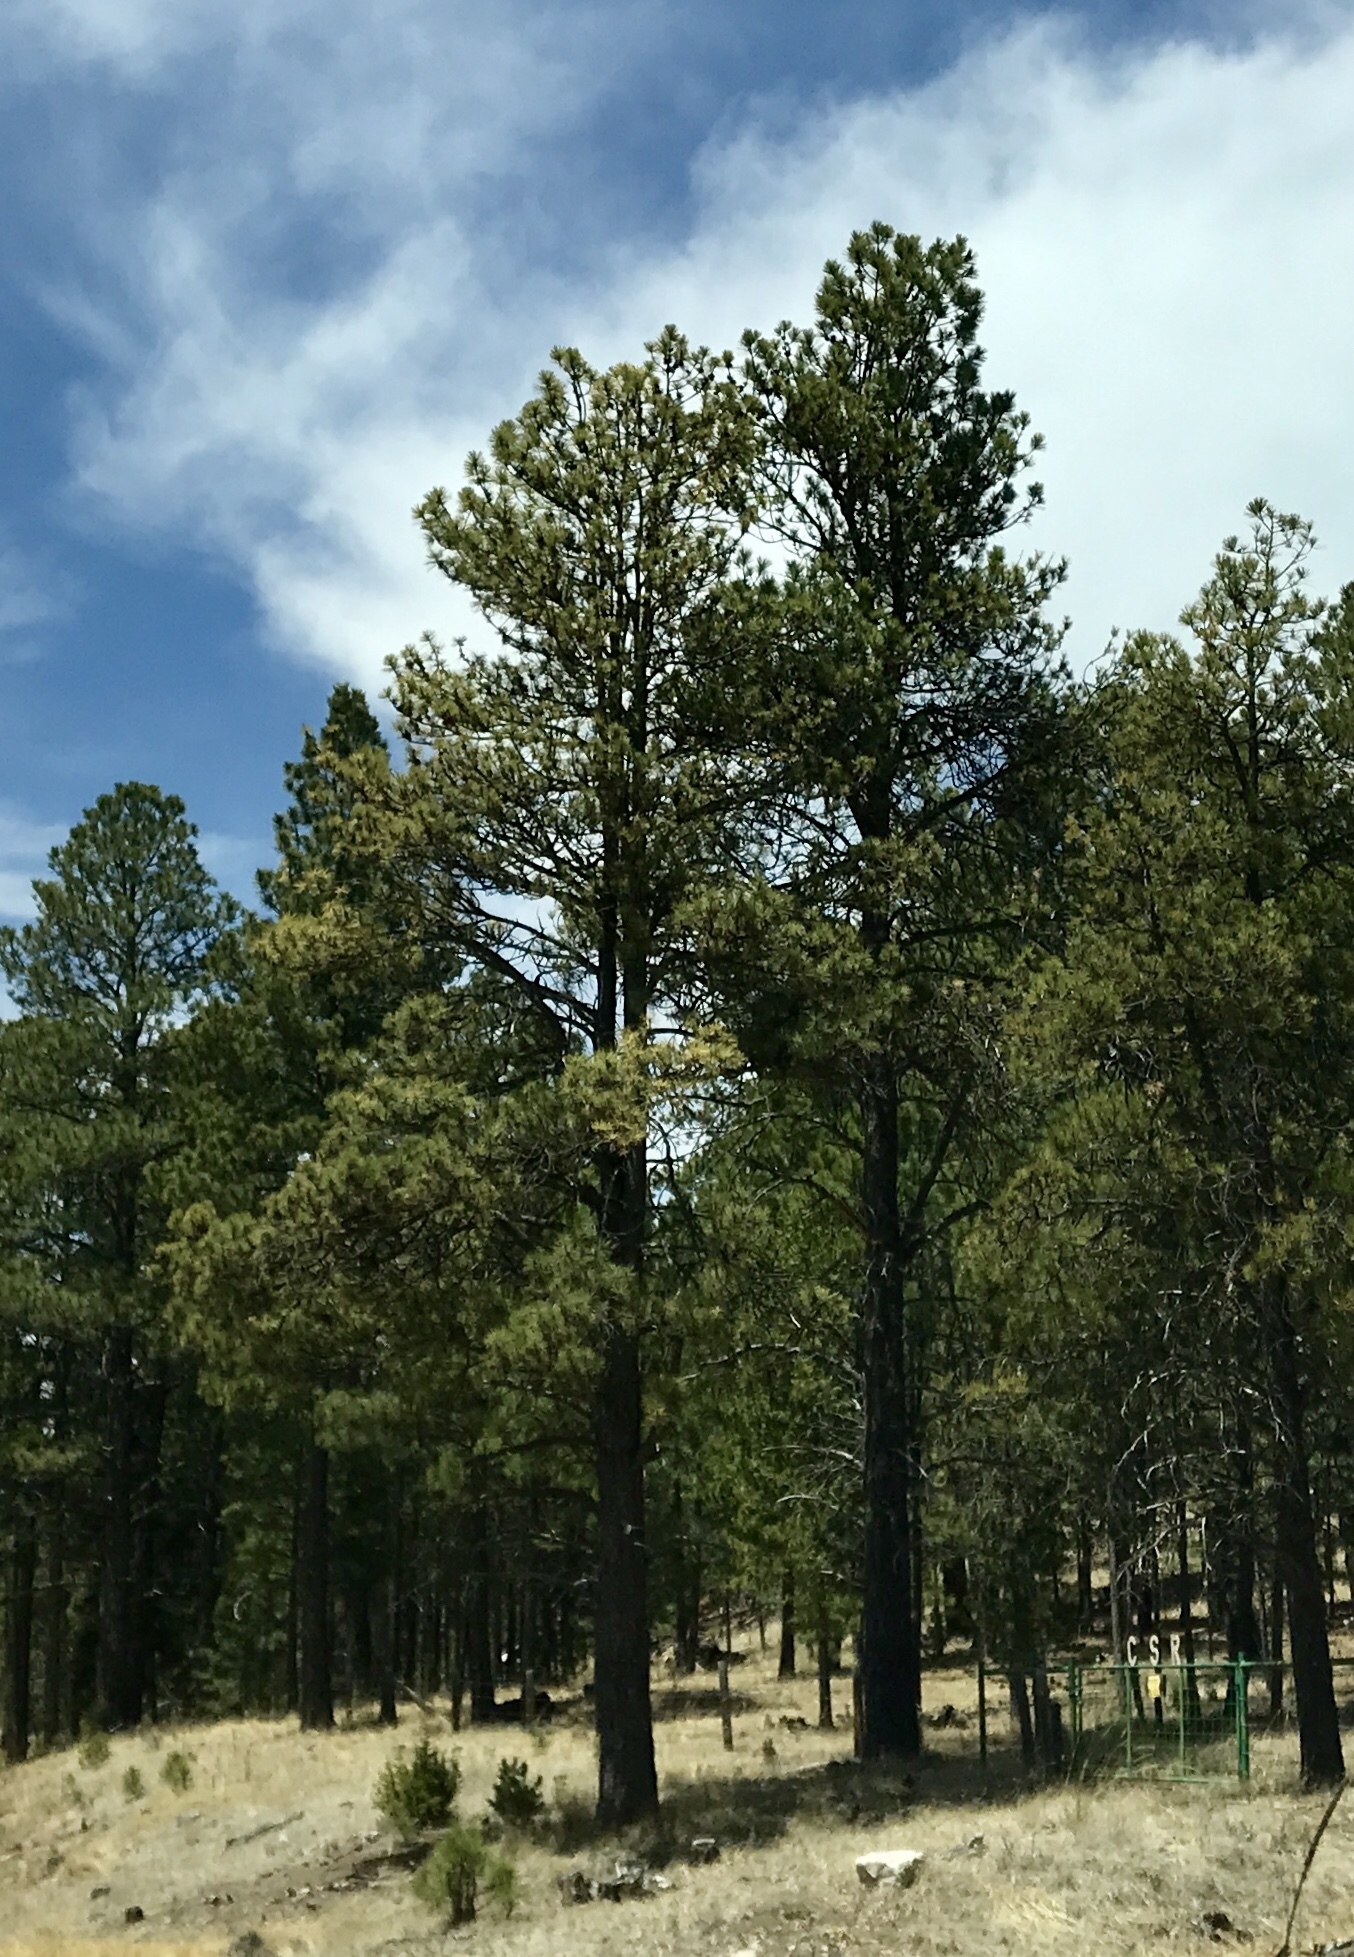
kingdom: Plantae
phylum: Tracheophyta
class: Pinopsida
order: Pinales
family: Pinaceae
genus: Pinus
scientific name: Pinus ponderosa
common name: Western yellow-pine
